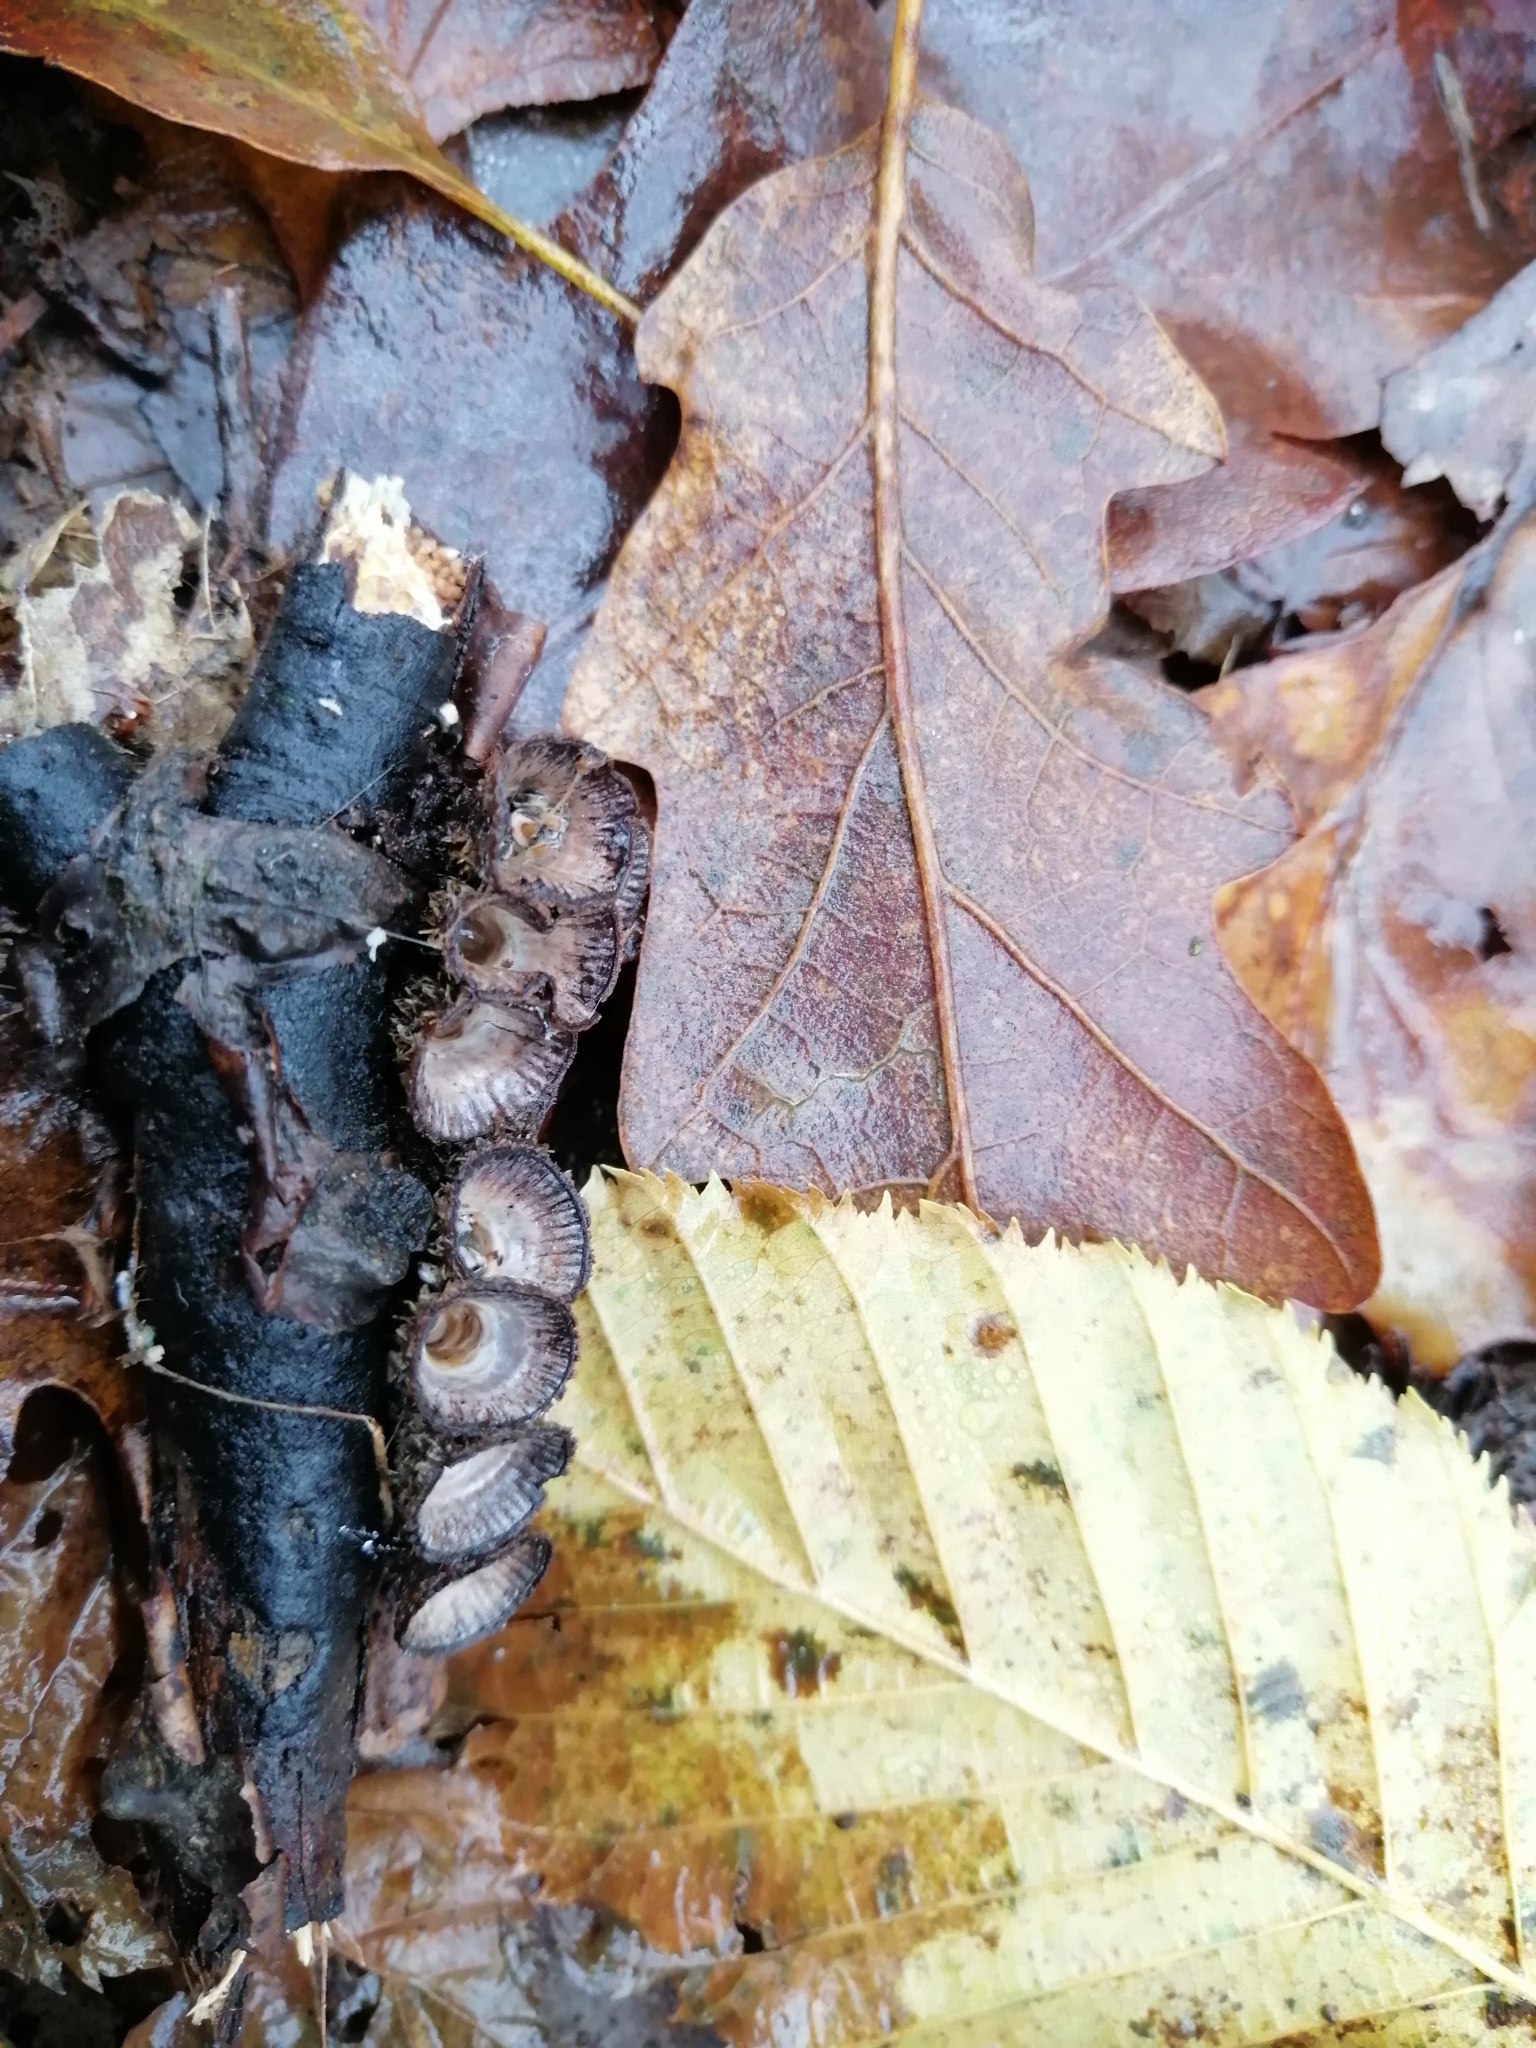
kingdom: Fungi
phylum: Basidiomycota
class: Agaricomycetes
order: Agaricales
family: Agaricaceae
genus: Cyathus
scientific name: Cyathus striatus
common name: Fluted bird's nest
